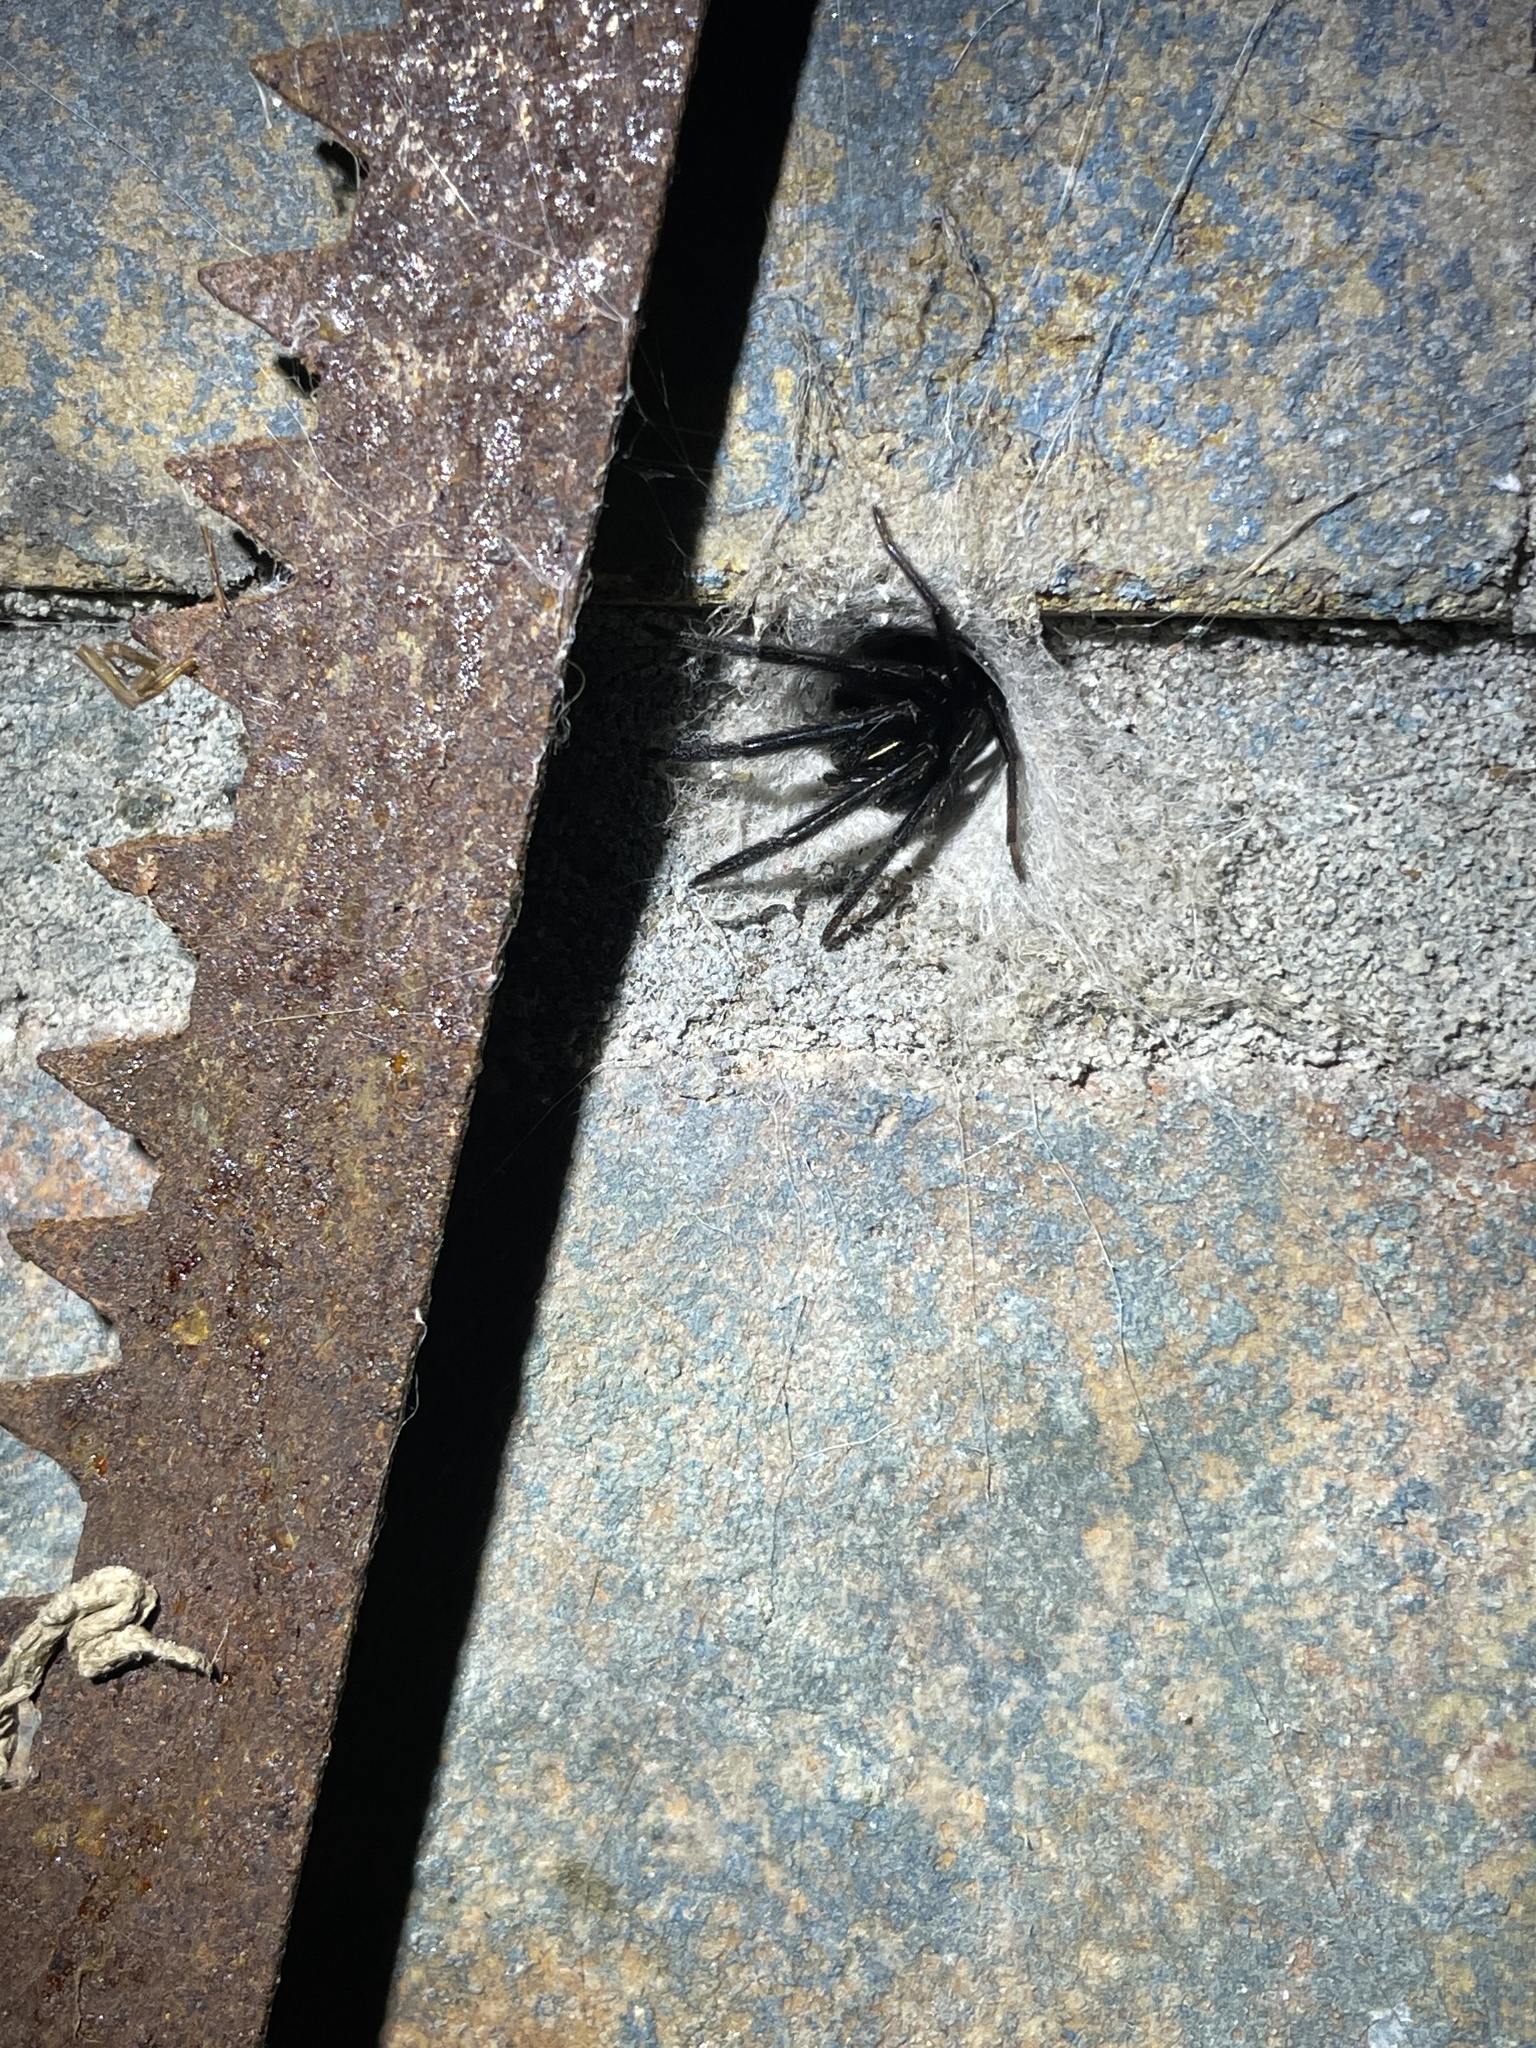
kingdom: Animalia
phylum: Arthropoda
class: Arachnida
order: Araneae
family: Segestriidae
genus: Segestria
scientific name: Segestria florentina
